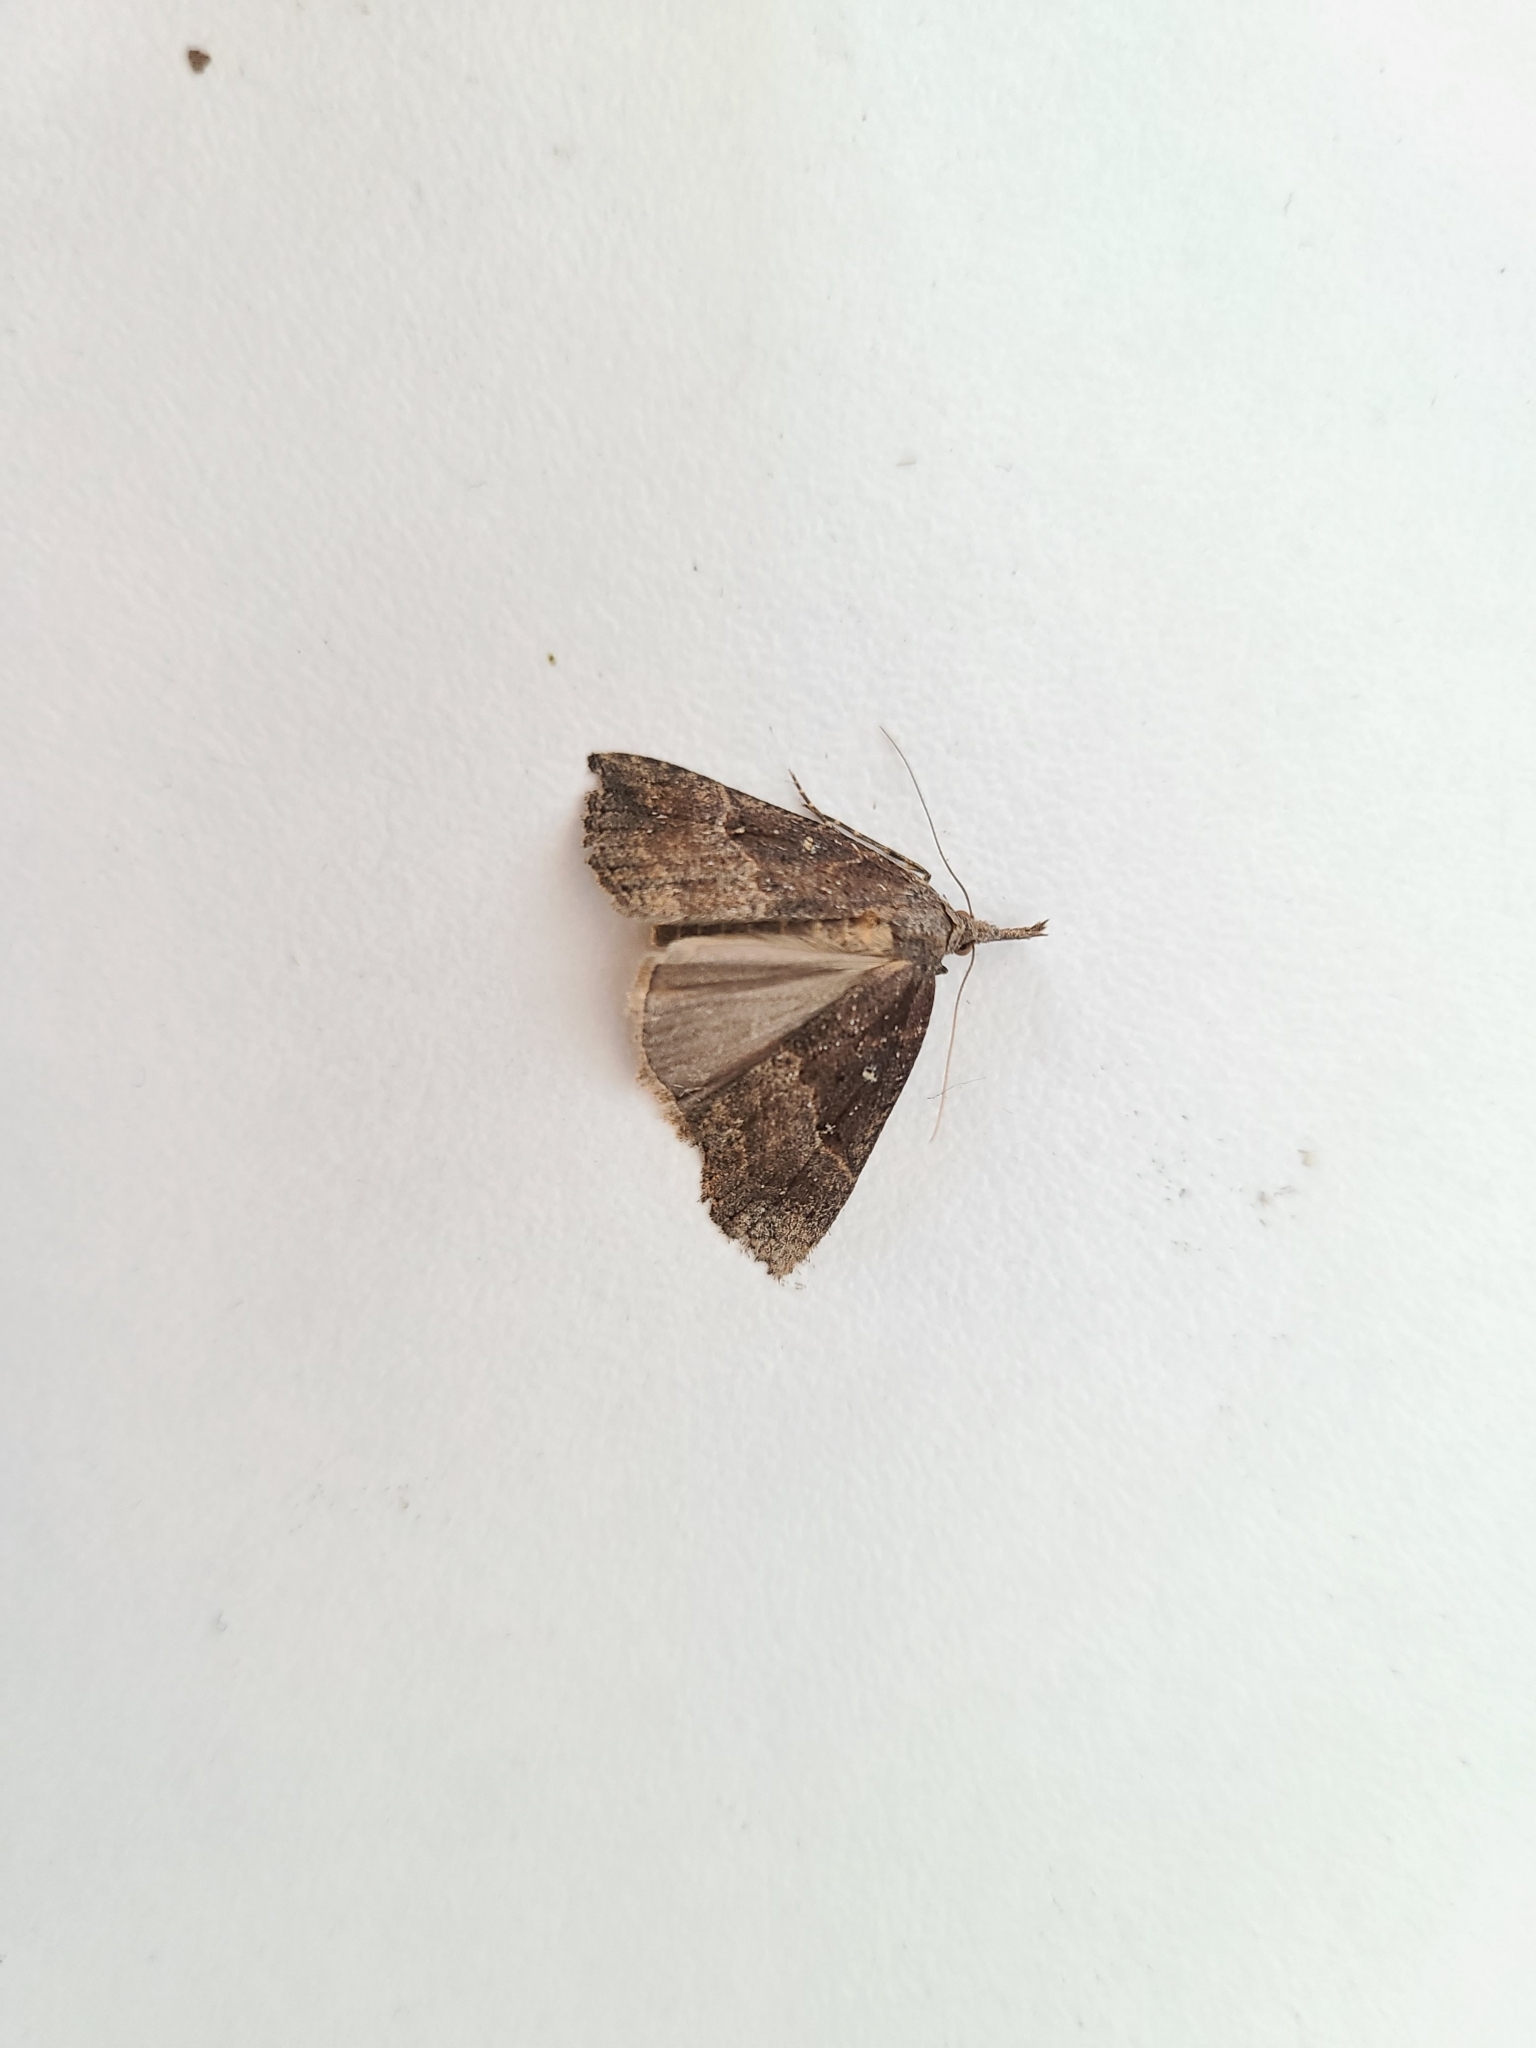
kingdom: Animalia
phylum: Arthropoda
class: Insecta
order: Lepidoptera
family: Erebidae
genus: Hypena
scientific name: Hypena rostralis
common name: Buttoned snout
